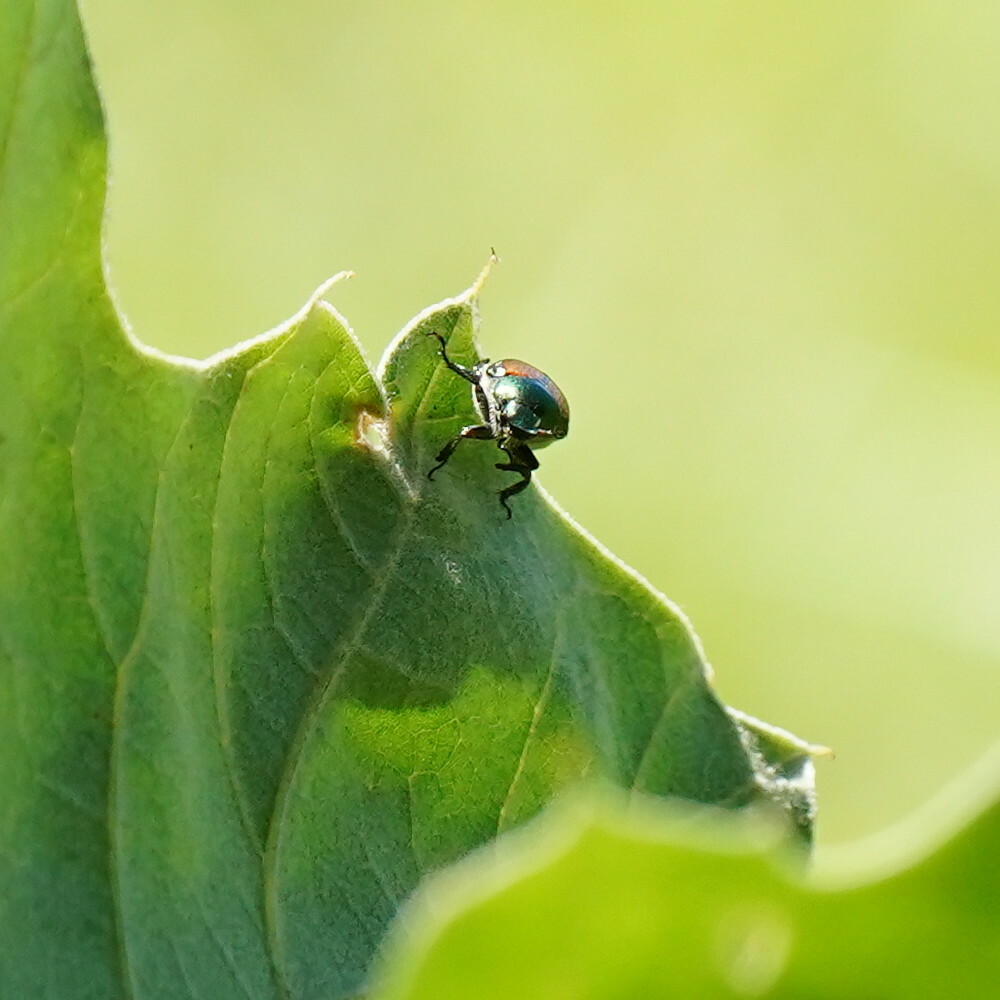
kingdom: Animalia
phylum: Arthropoda
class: Insecta
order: Coleoptera
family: Scarabaeidae
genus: Popillia
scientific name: Popillia japonica
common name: Japanese beetle
